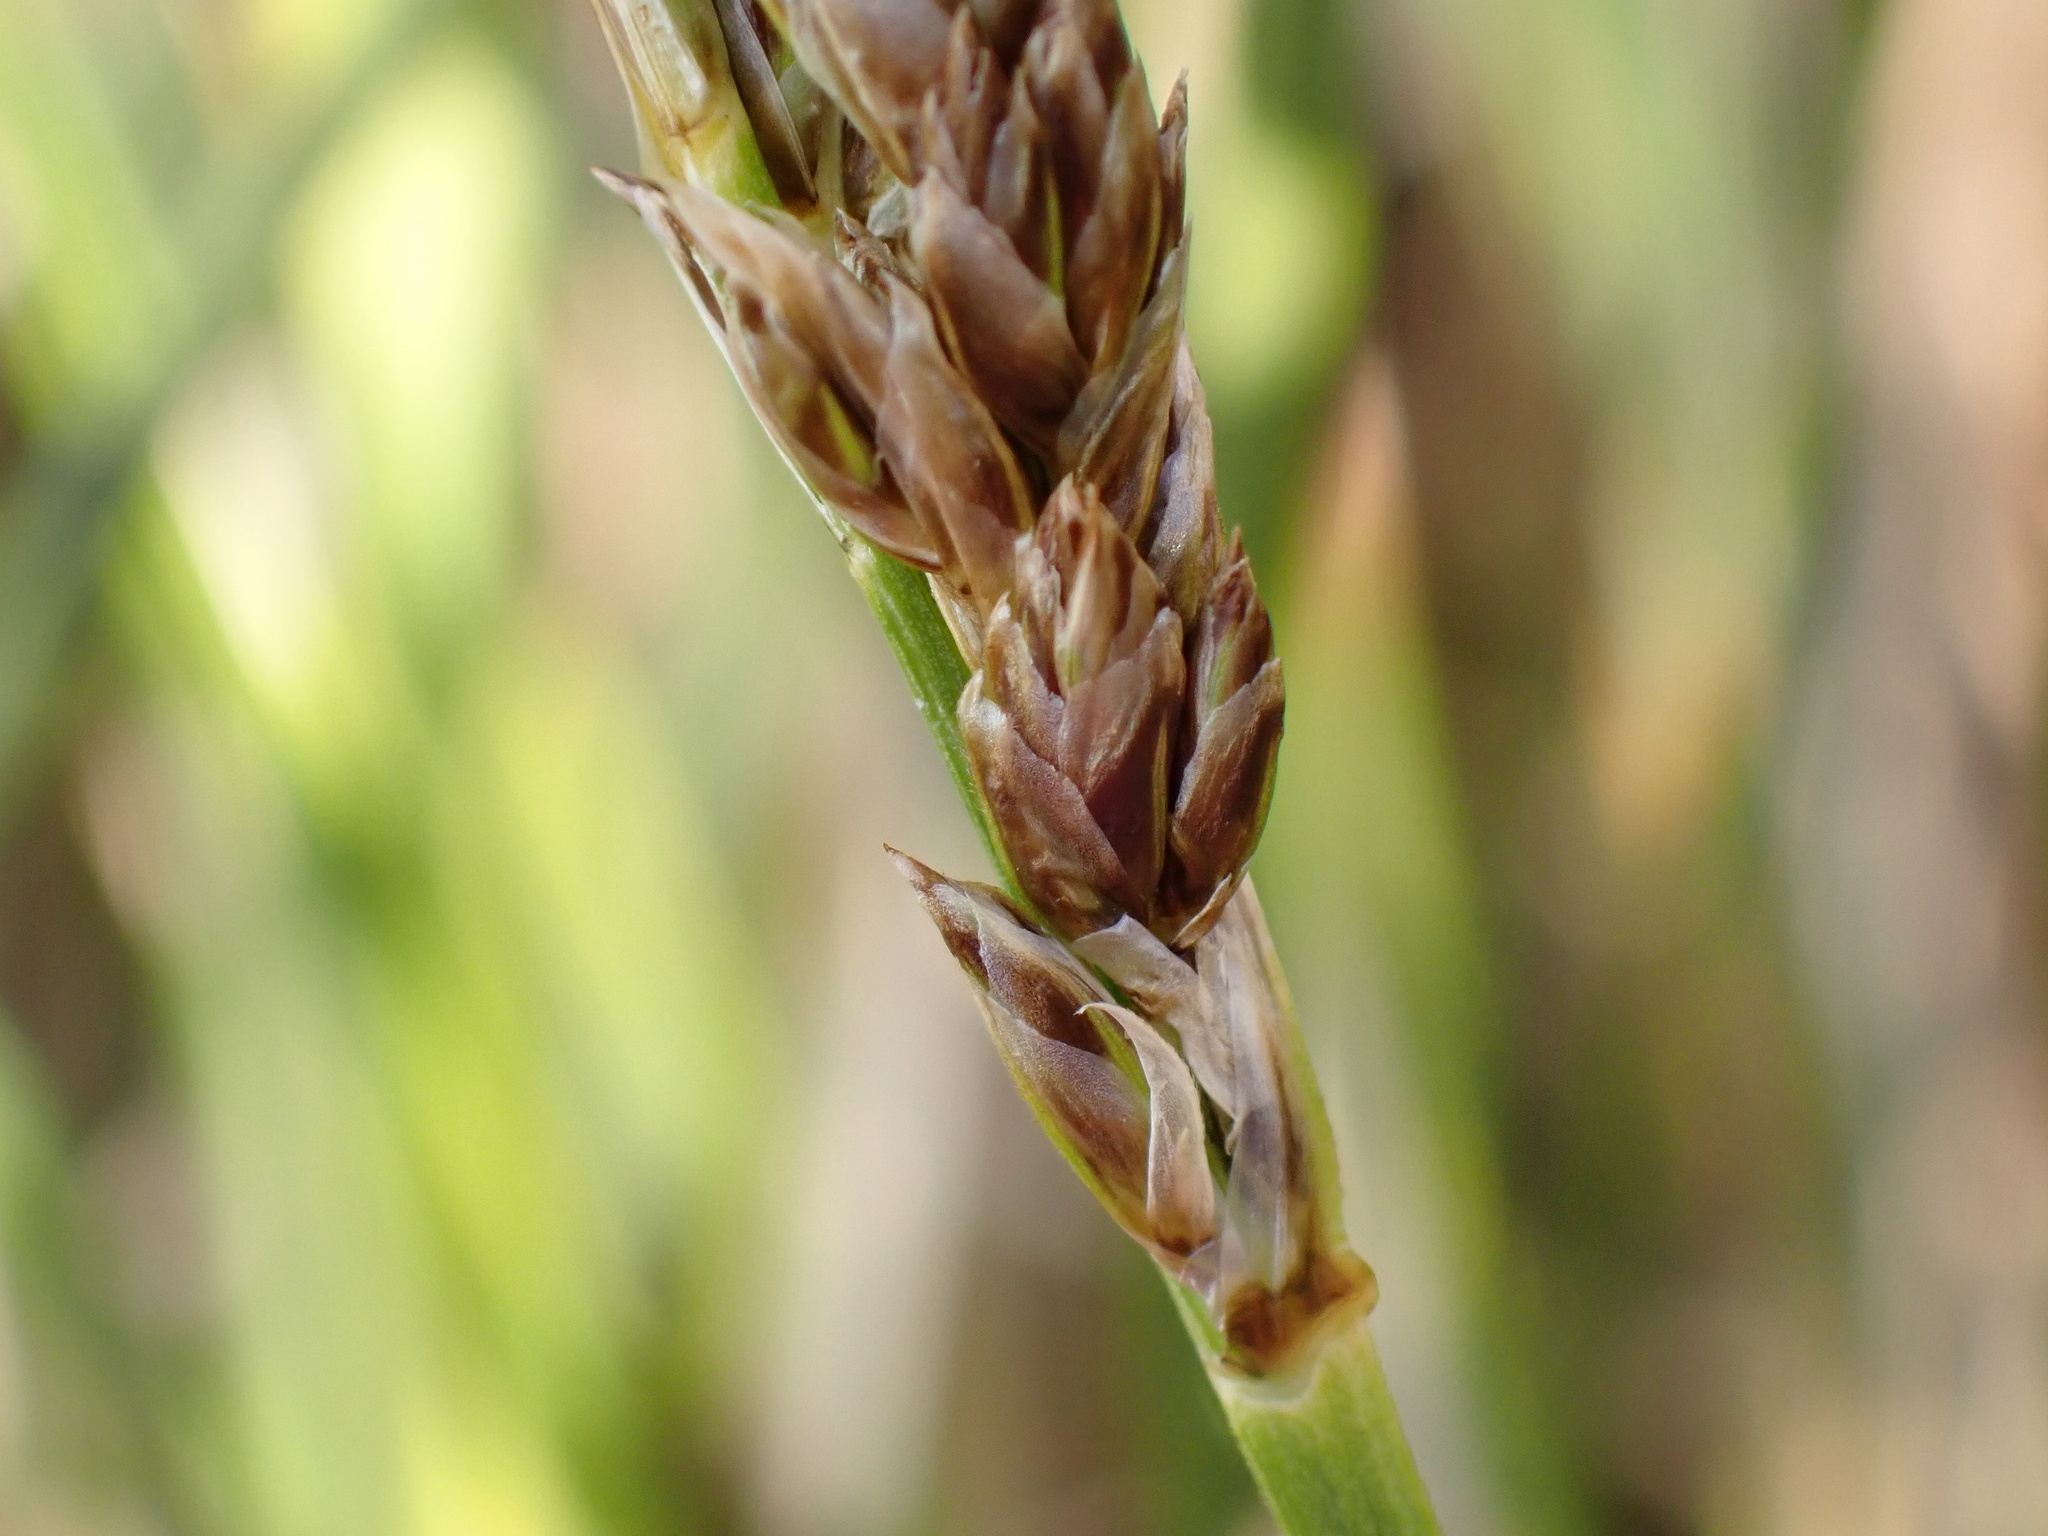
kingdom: Plantae
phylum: Tracheophyta
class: Liliopsida
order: Poales
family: Cyperaceae
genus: Carex
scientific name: Carex paniculata
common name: Greater tussock-sedge
